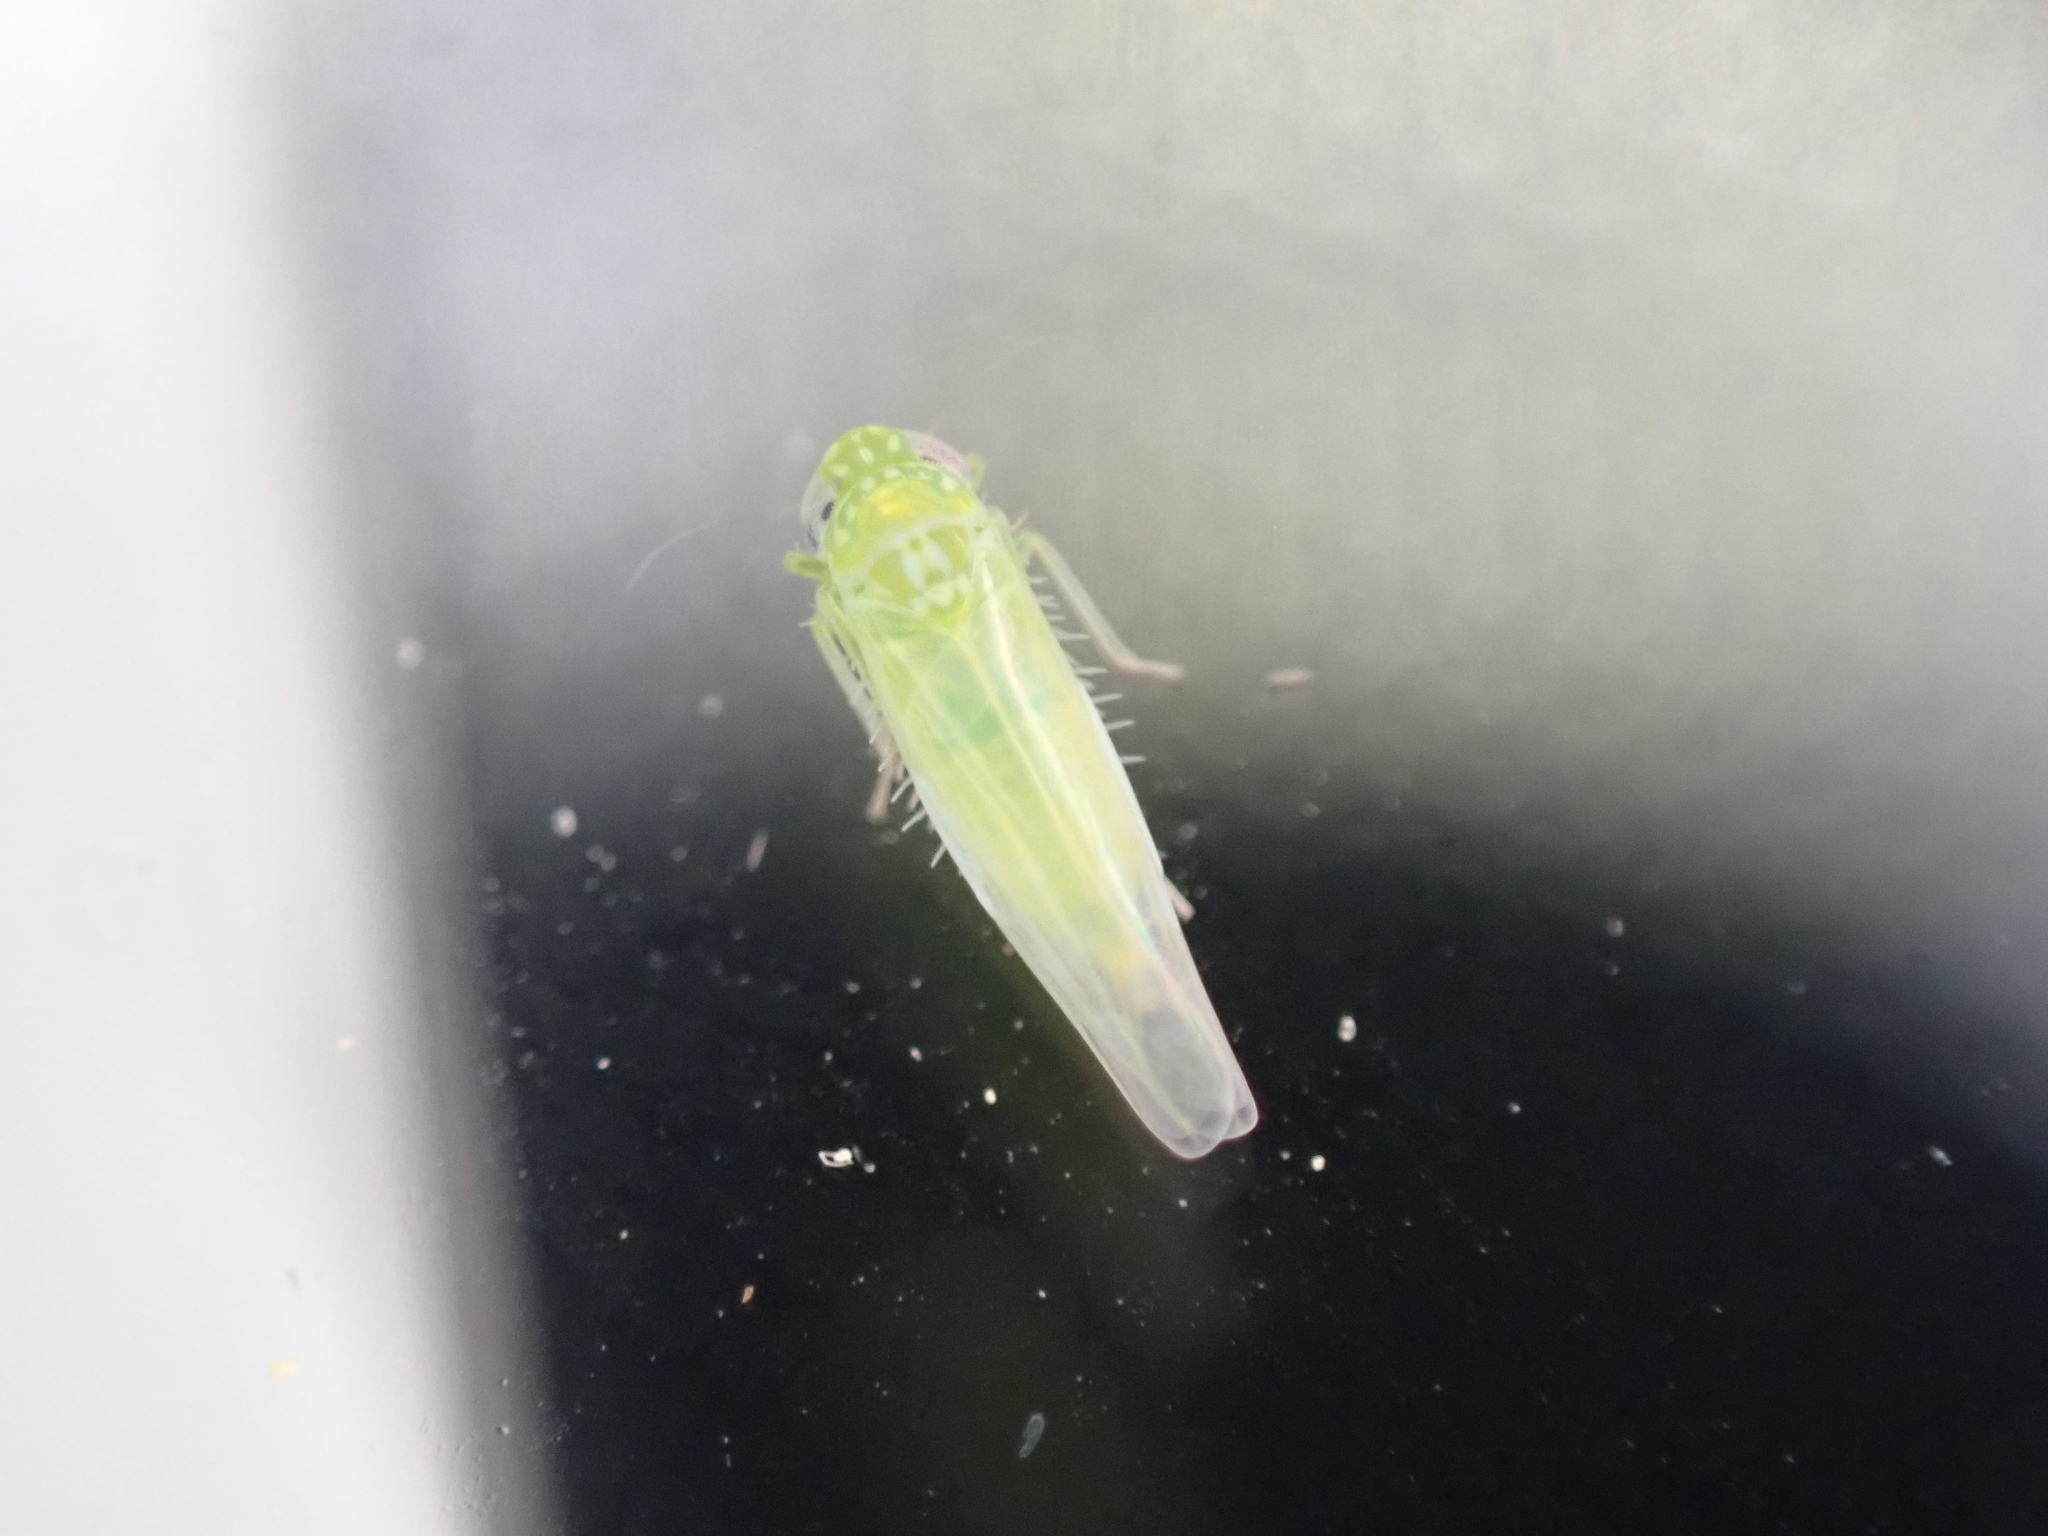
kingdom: Animalia
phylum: Arthropoda
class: Insecta
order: Hemiptera
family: Cicadellidae
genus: Empoasca
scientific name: Empoasca fabae
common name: Potato leafhopper
